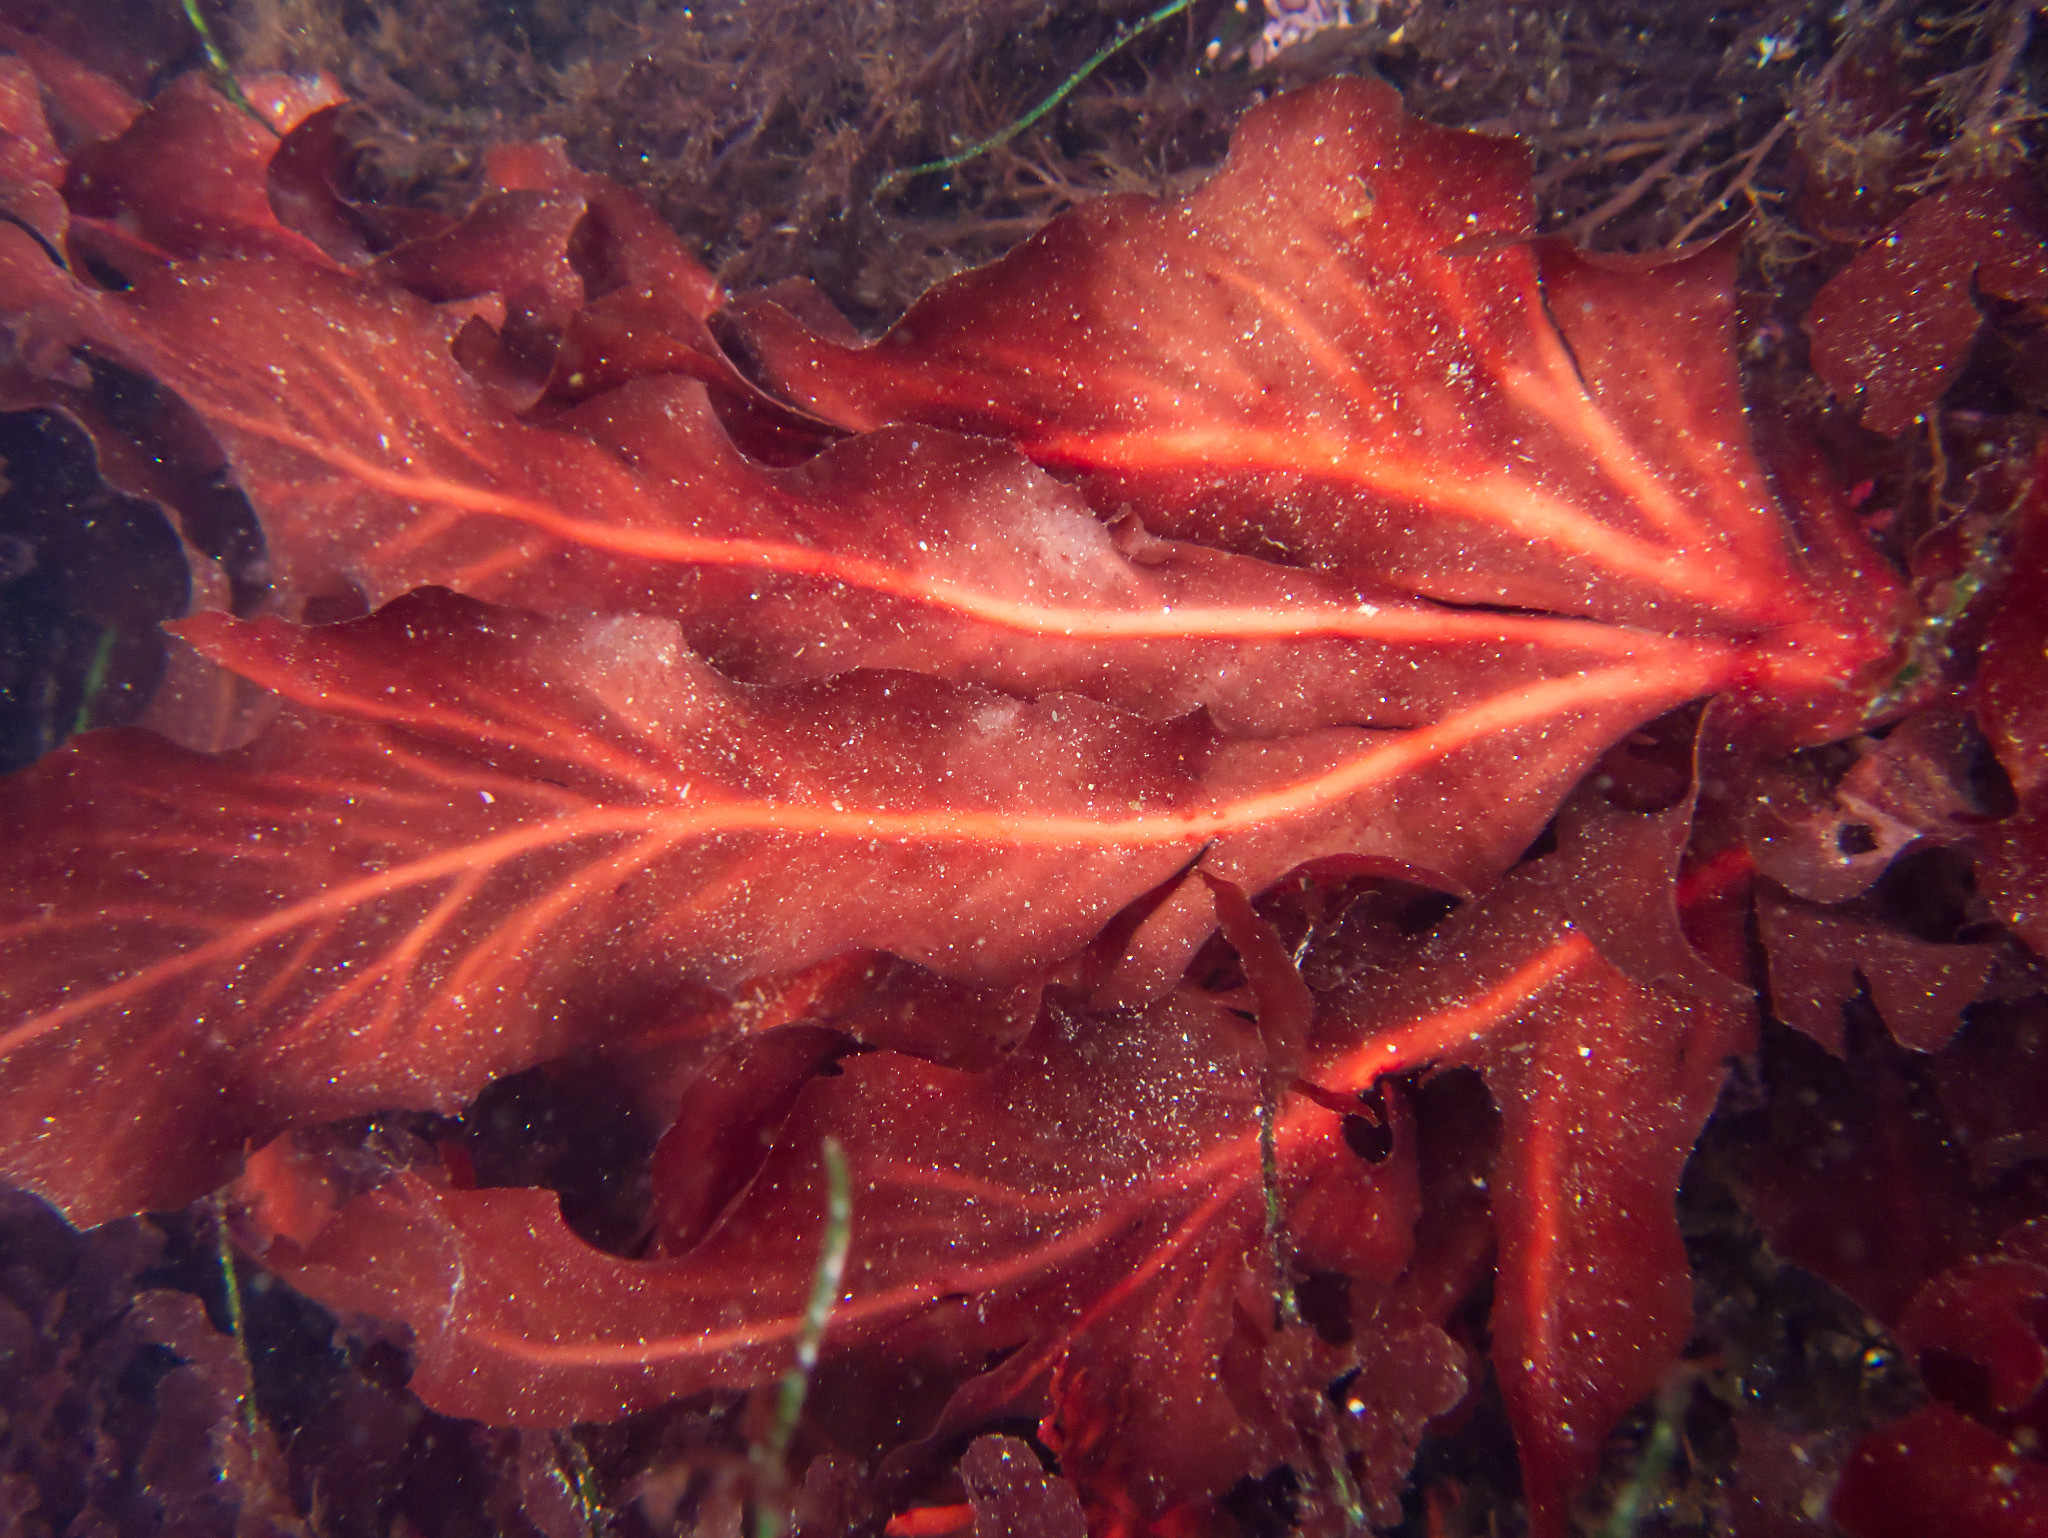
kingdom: Plantae
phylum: Rhodophyta
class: Florideophyceae
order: Gigartinales
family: Kallymeniaceae
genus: Erythrophyllum
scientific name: Erythrophyllum delesserioides
